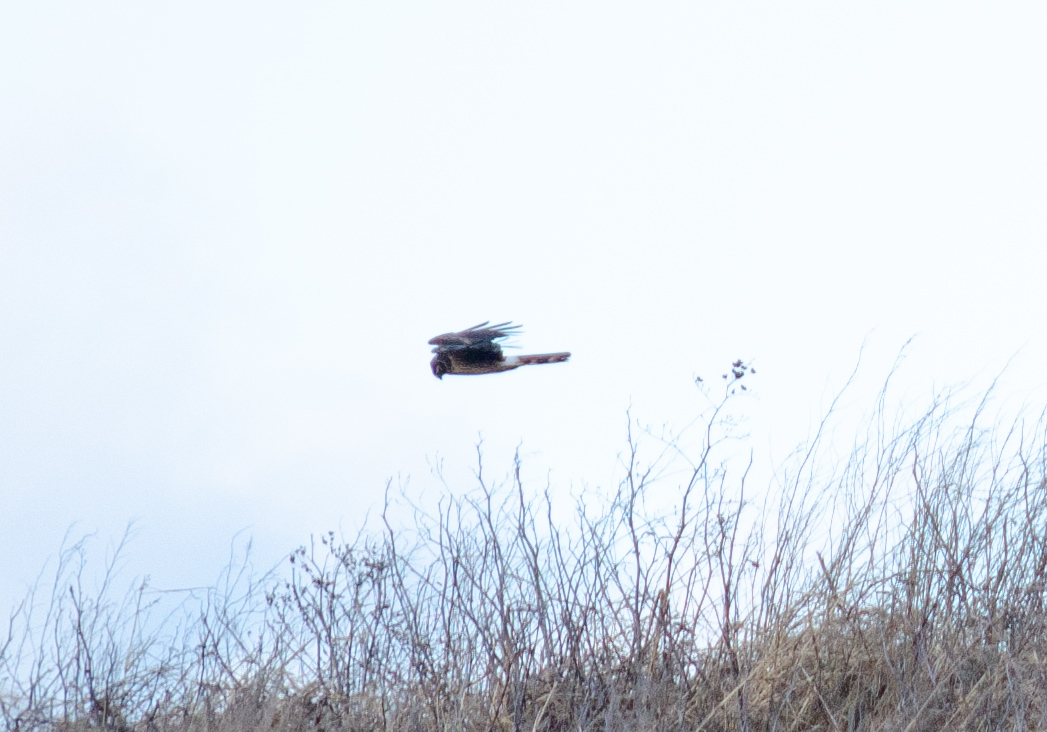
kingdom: Animalia
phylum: Chordata
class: Aves
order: Accipitriformes
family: Accipitridae
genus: Circus
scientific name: Circus cyaneus
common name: Hen harrier
